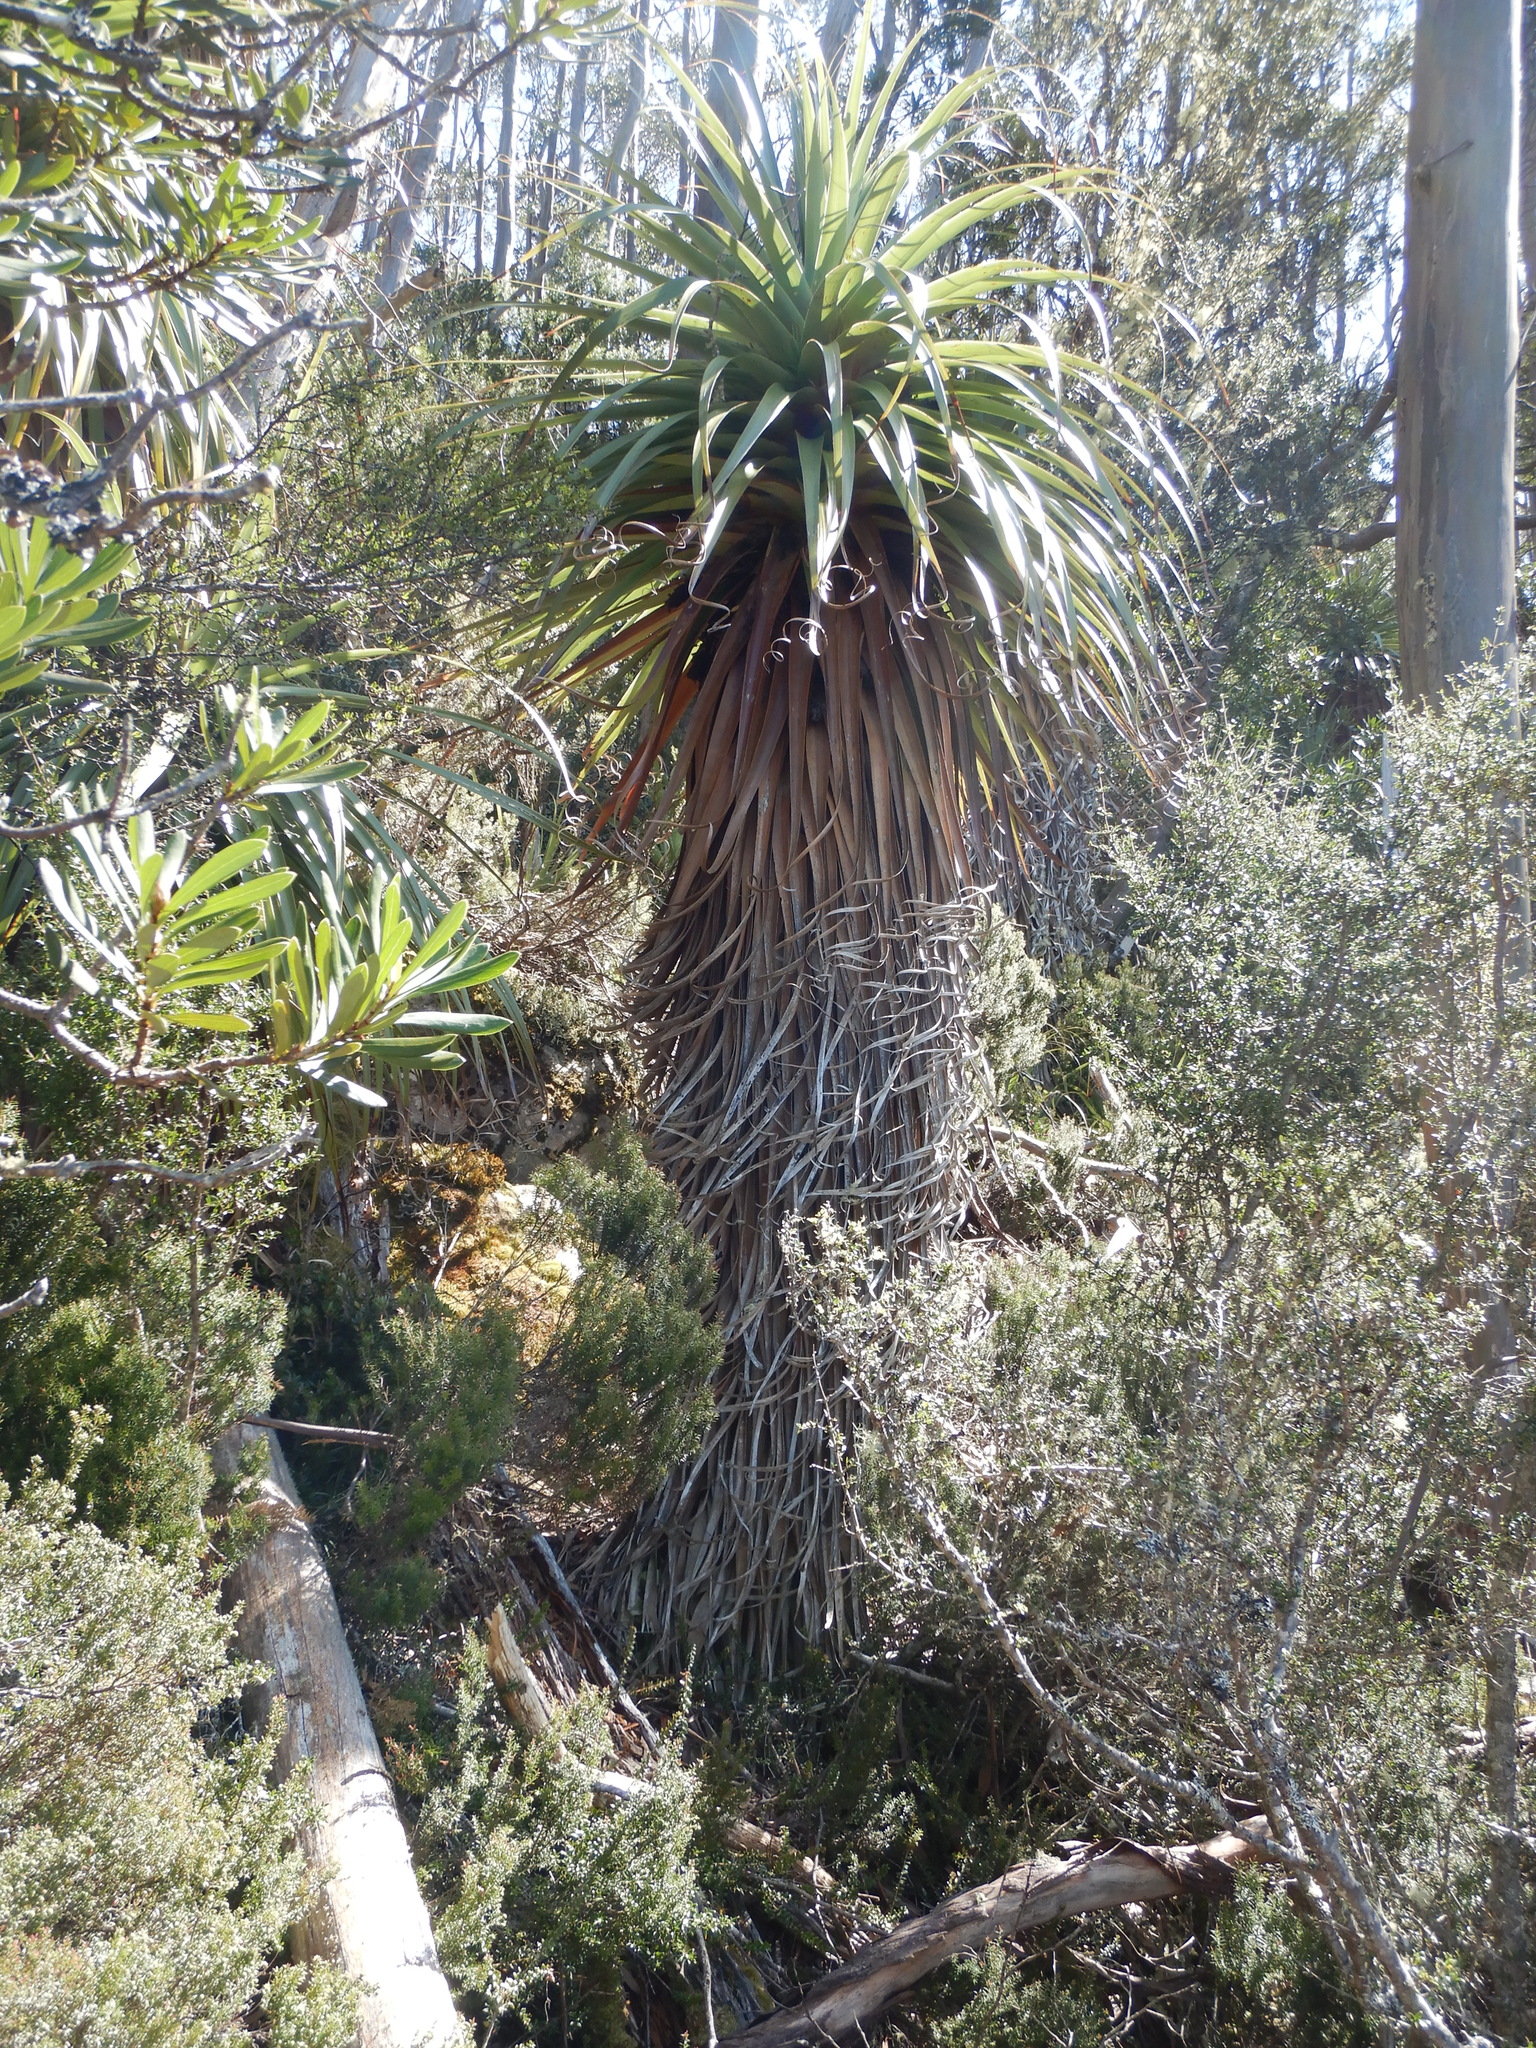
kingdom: Plantae
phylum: Tracheophyta
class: Magnoliopsida
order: Ericales
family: Ericaceae
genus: Dracophyllum
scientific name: Dracophyllum pandanifolium
